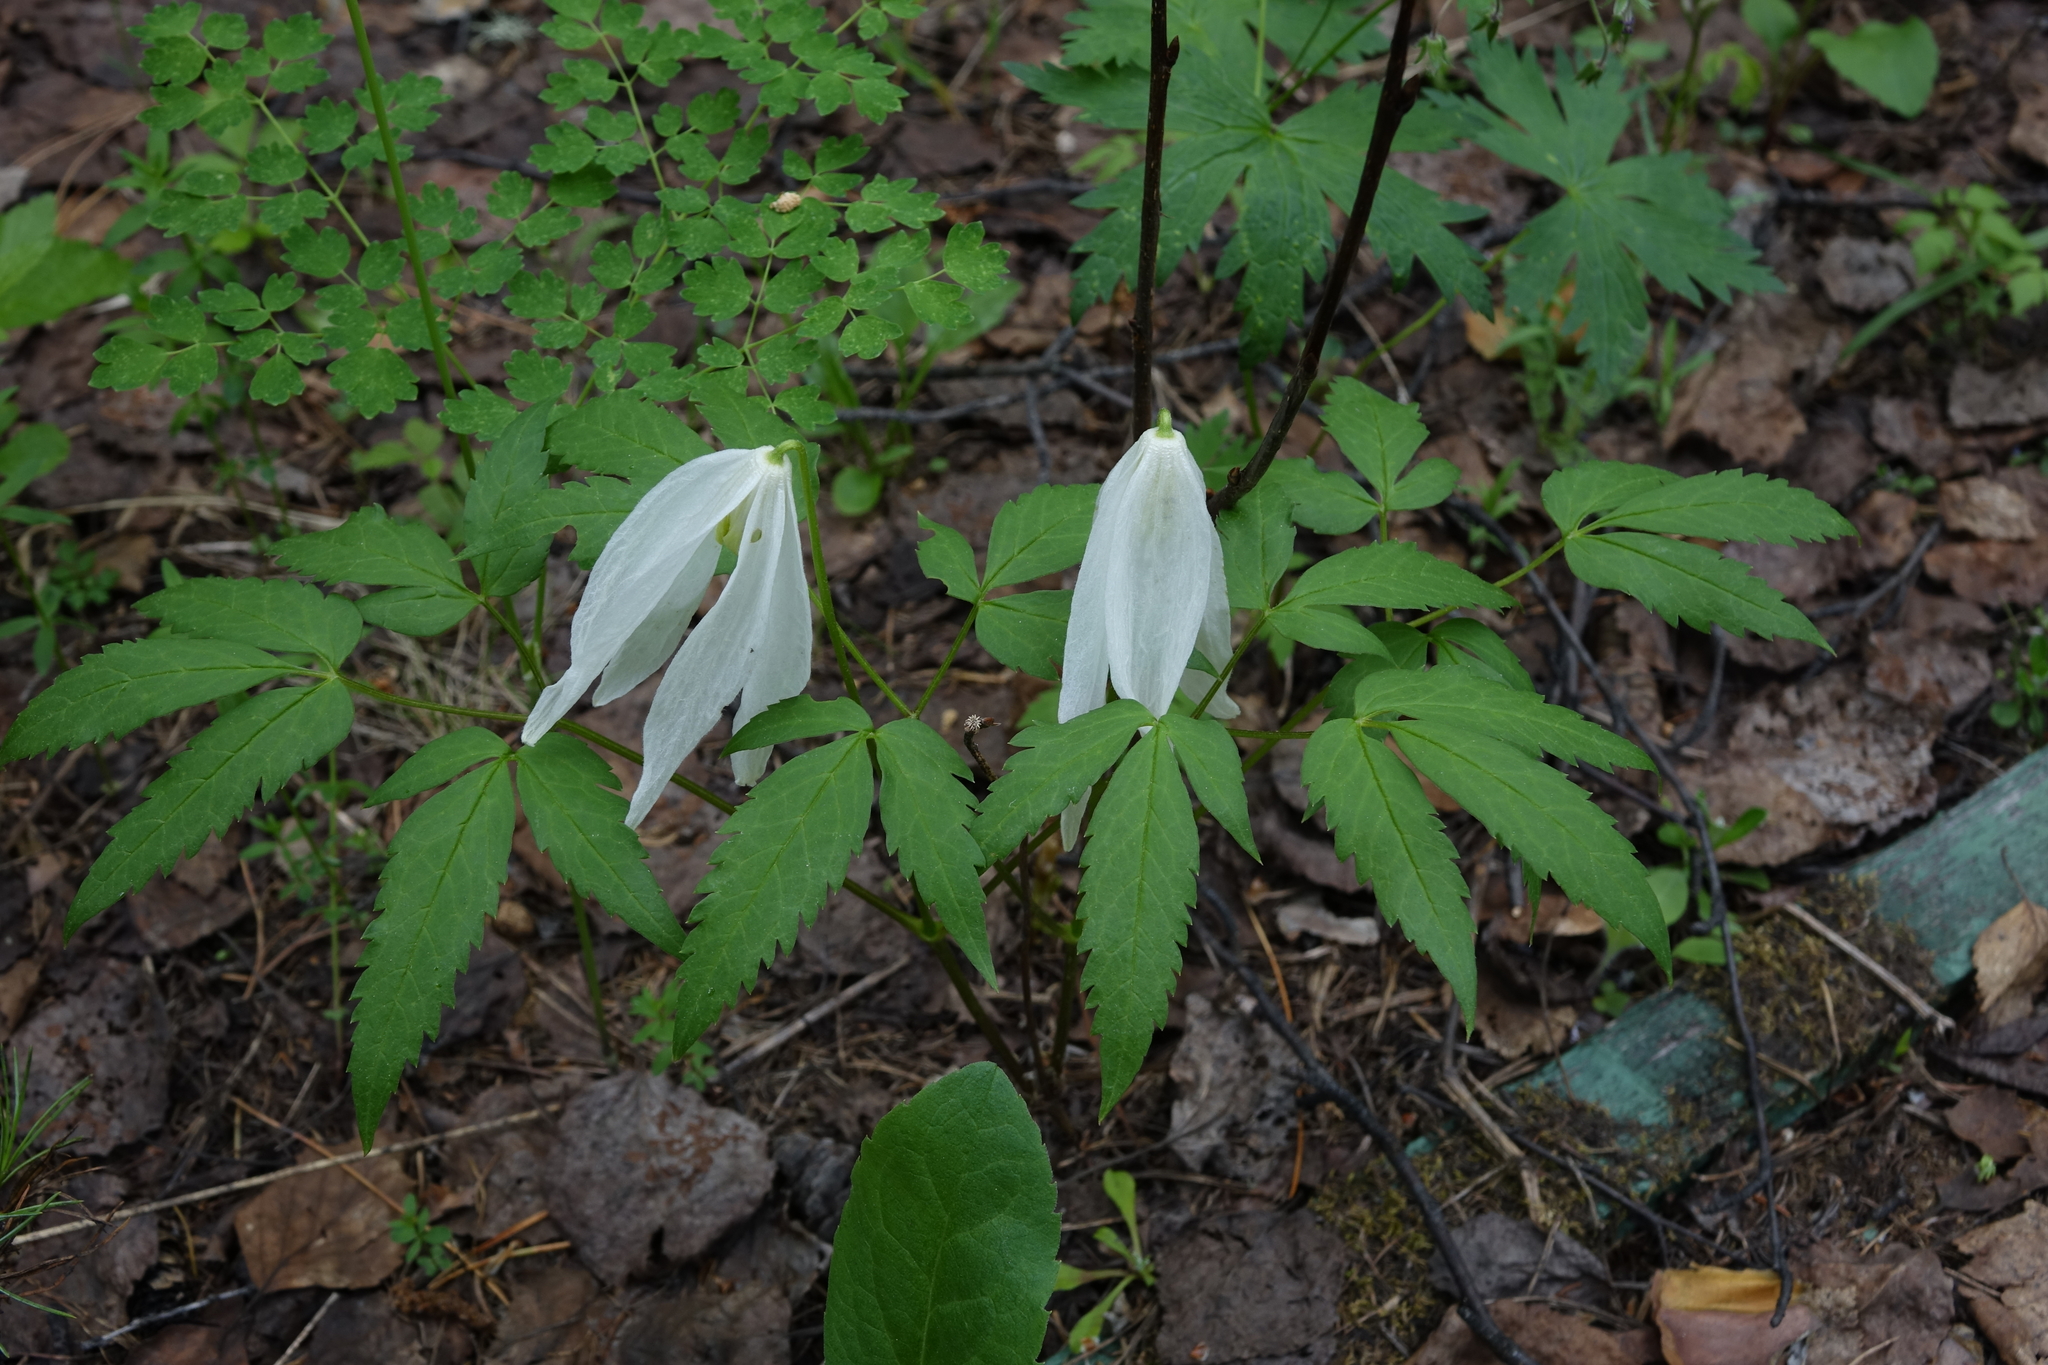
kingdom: Plantae
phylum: Tracheophyta
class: Magnoliopsida
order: Ranunculales
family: Ranunculaceae
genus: Clematis
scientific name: Clematis sibirica
